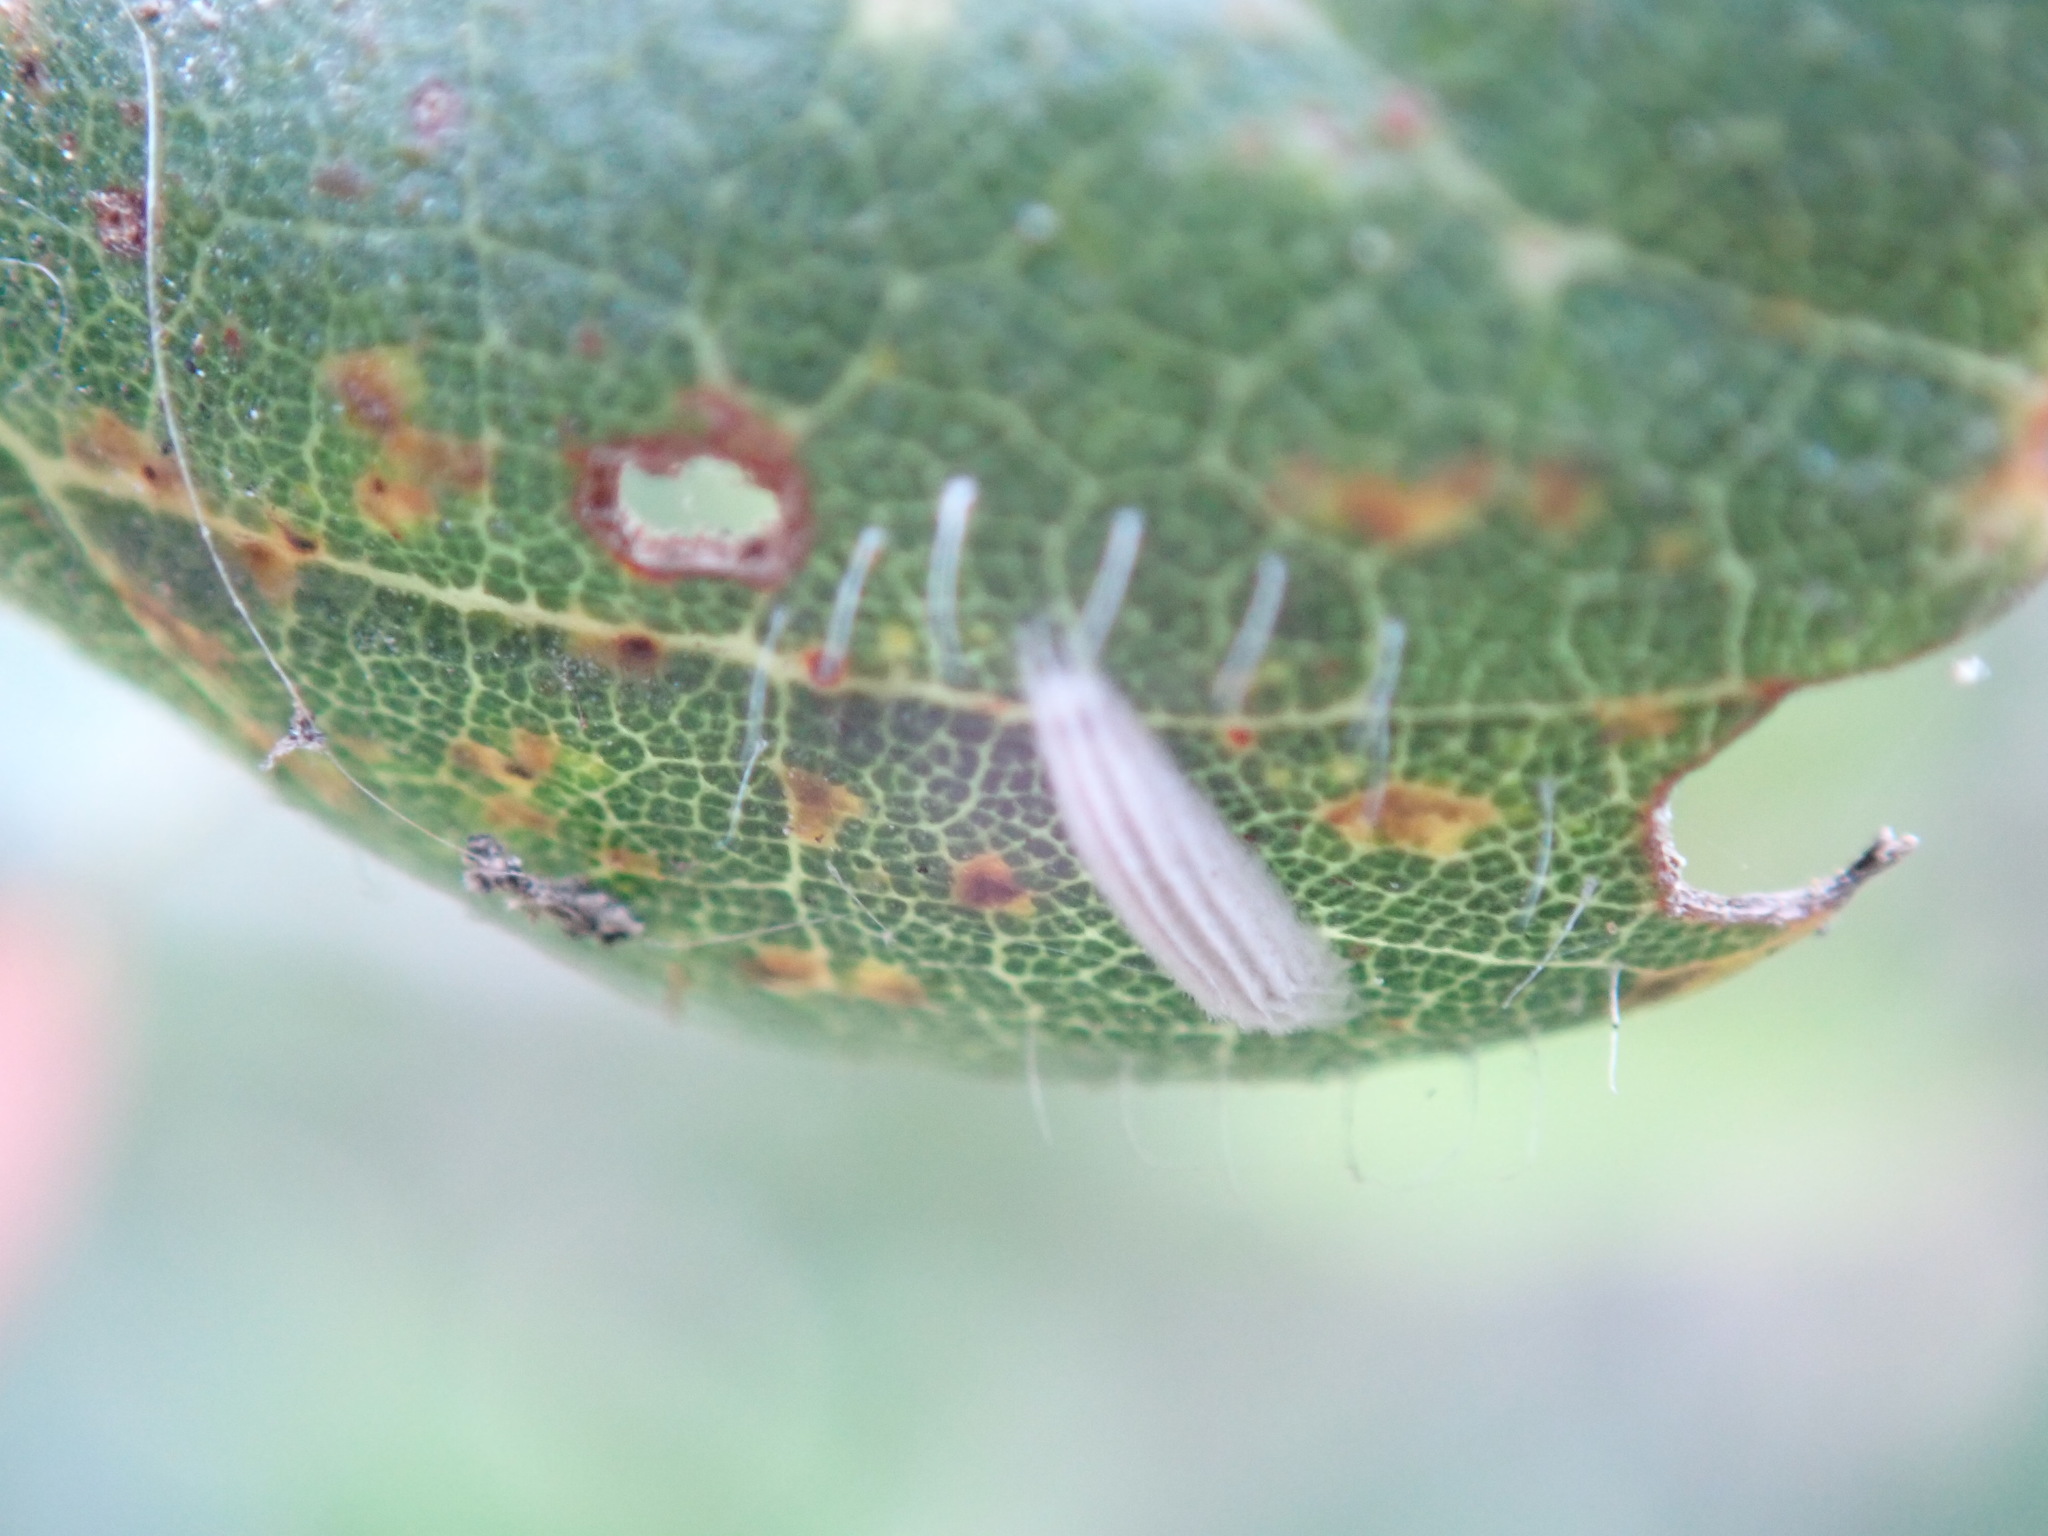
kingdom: Animalia
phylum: Arthropoda
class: Insecta
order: Lepidoptera
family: Bucculatricidae
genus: Bucculatrix
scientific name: Bucculatrix albertiella
